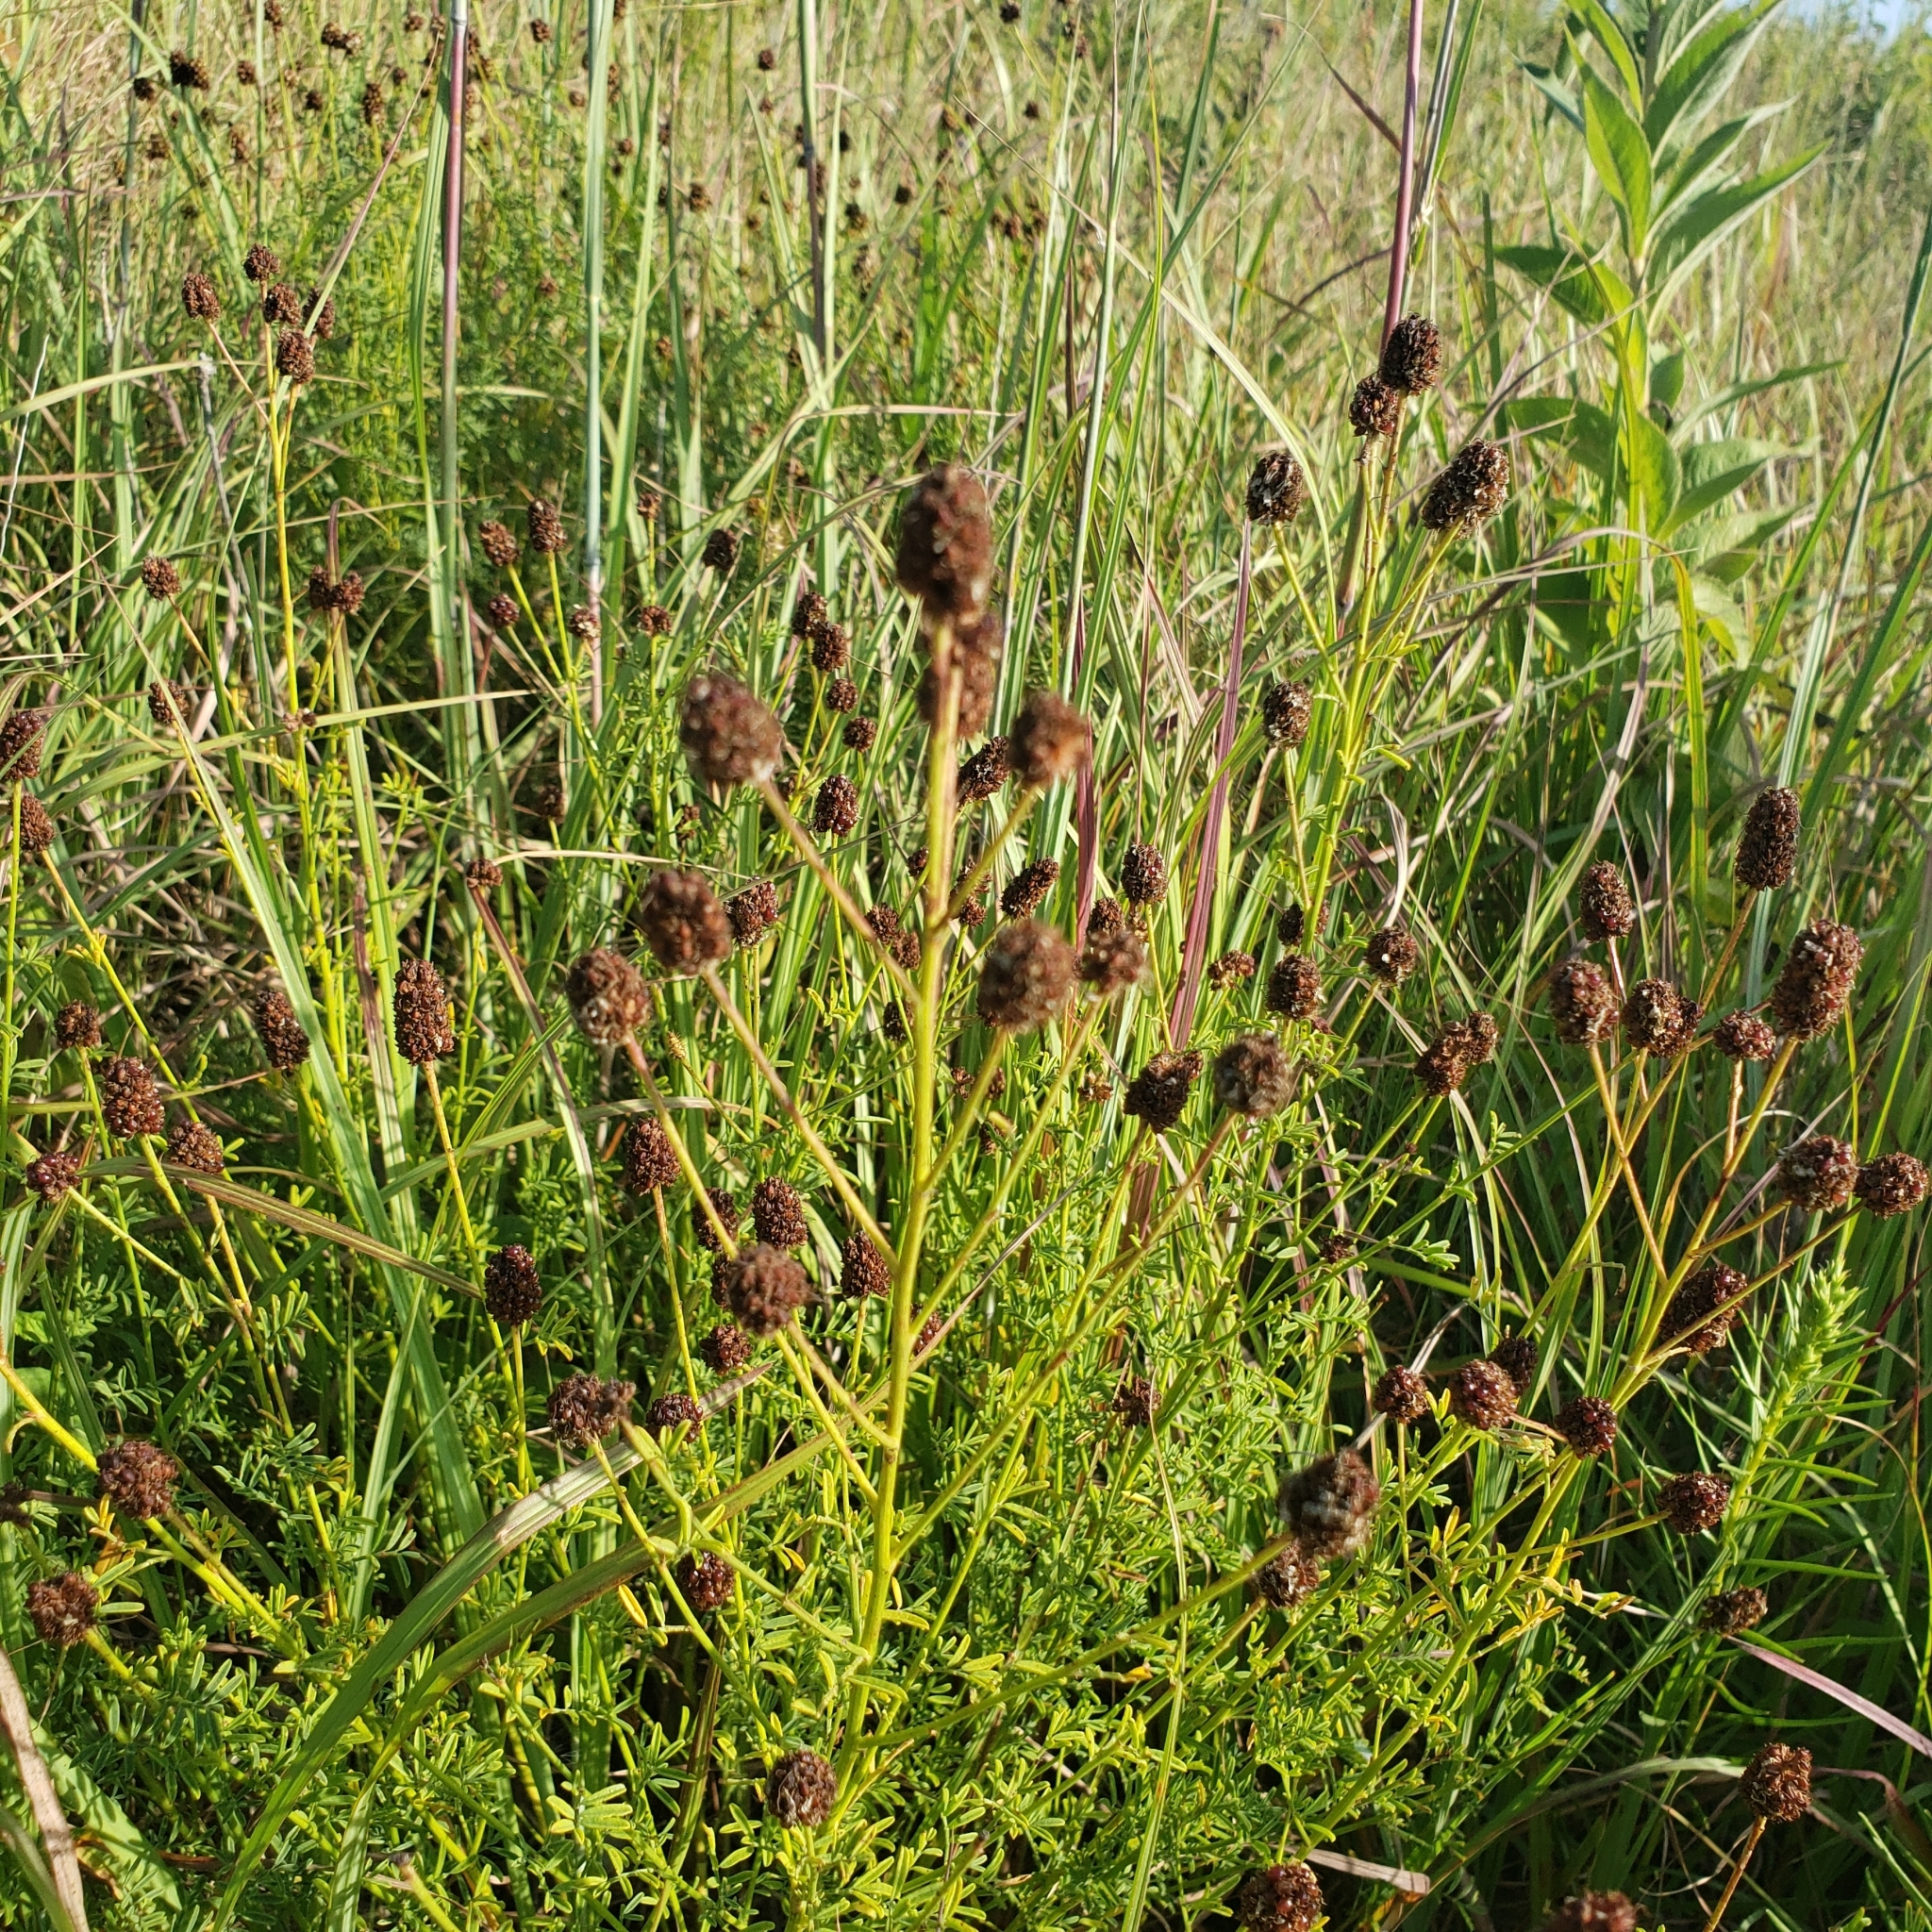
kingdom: Plantae
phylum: Tracheophyta
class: Magnoliopsida
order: Fabales
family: Fabaceae
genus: Dalea
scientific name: Dalea multiflora
